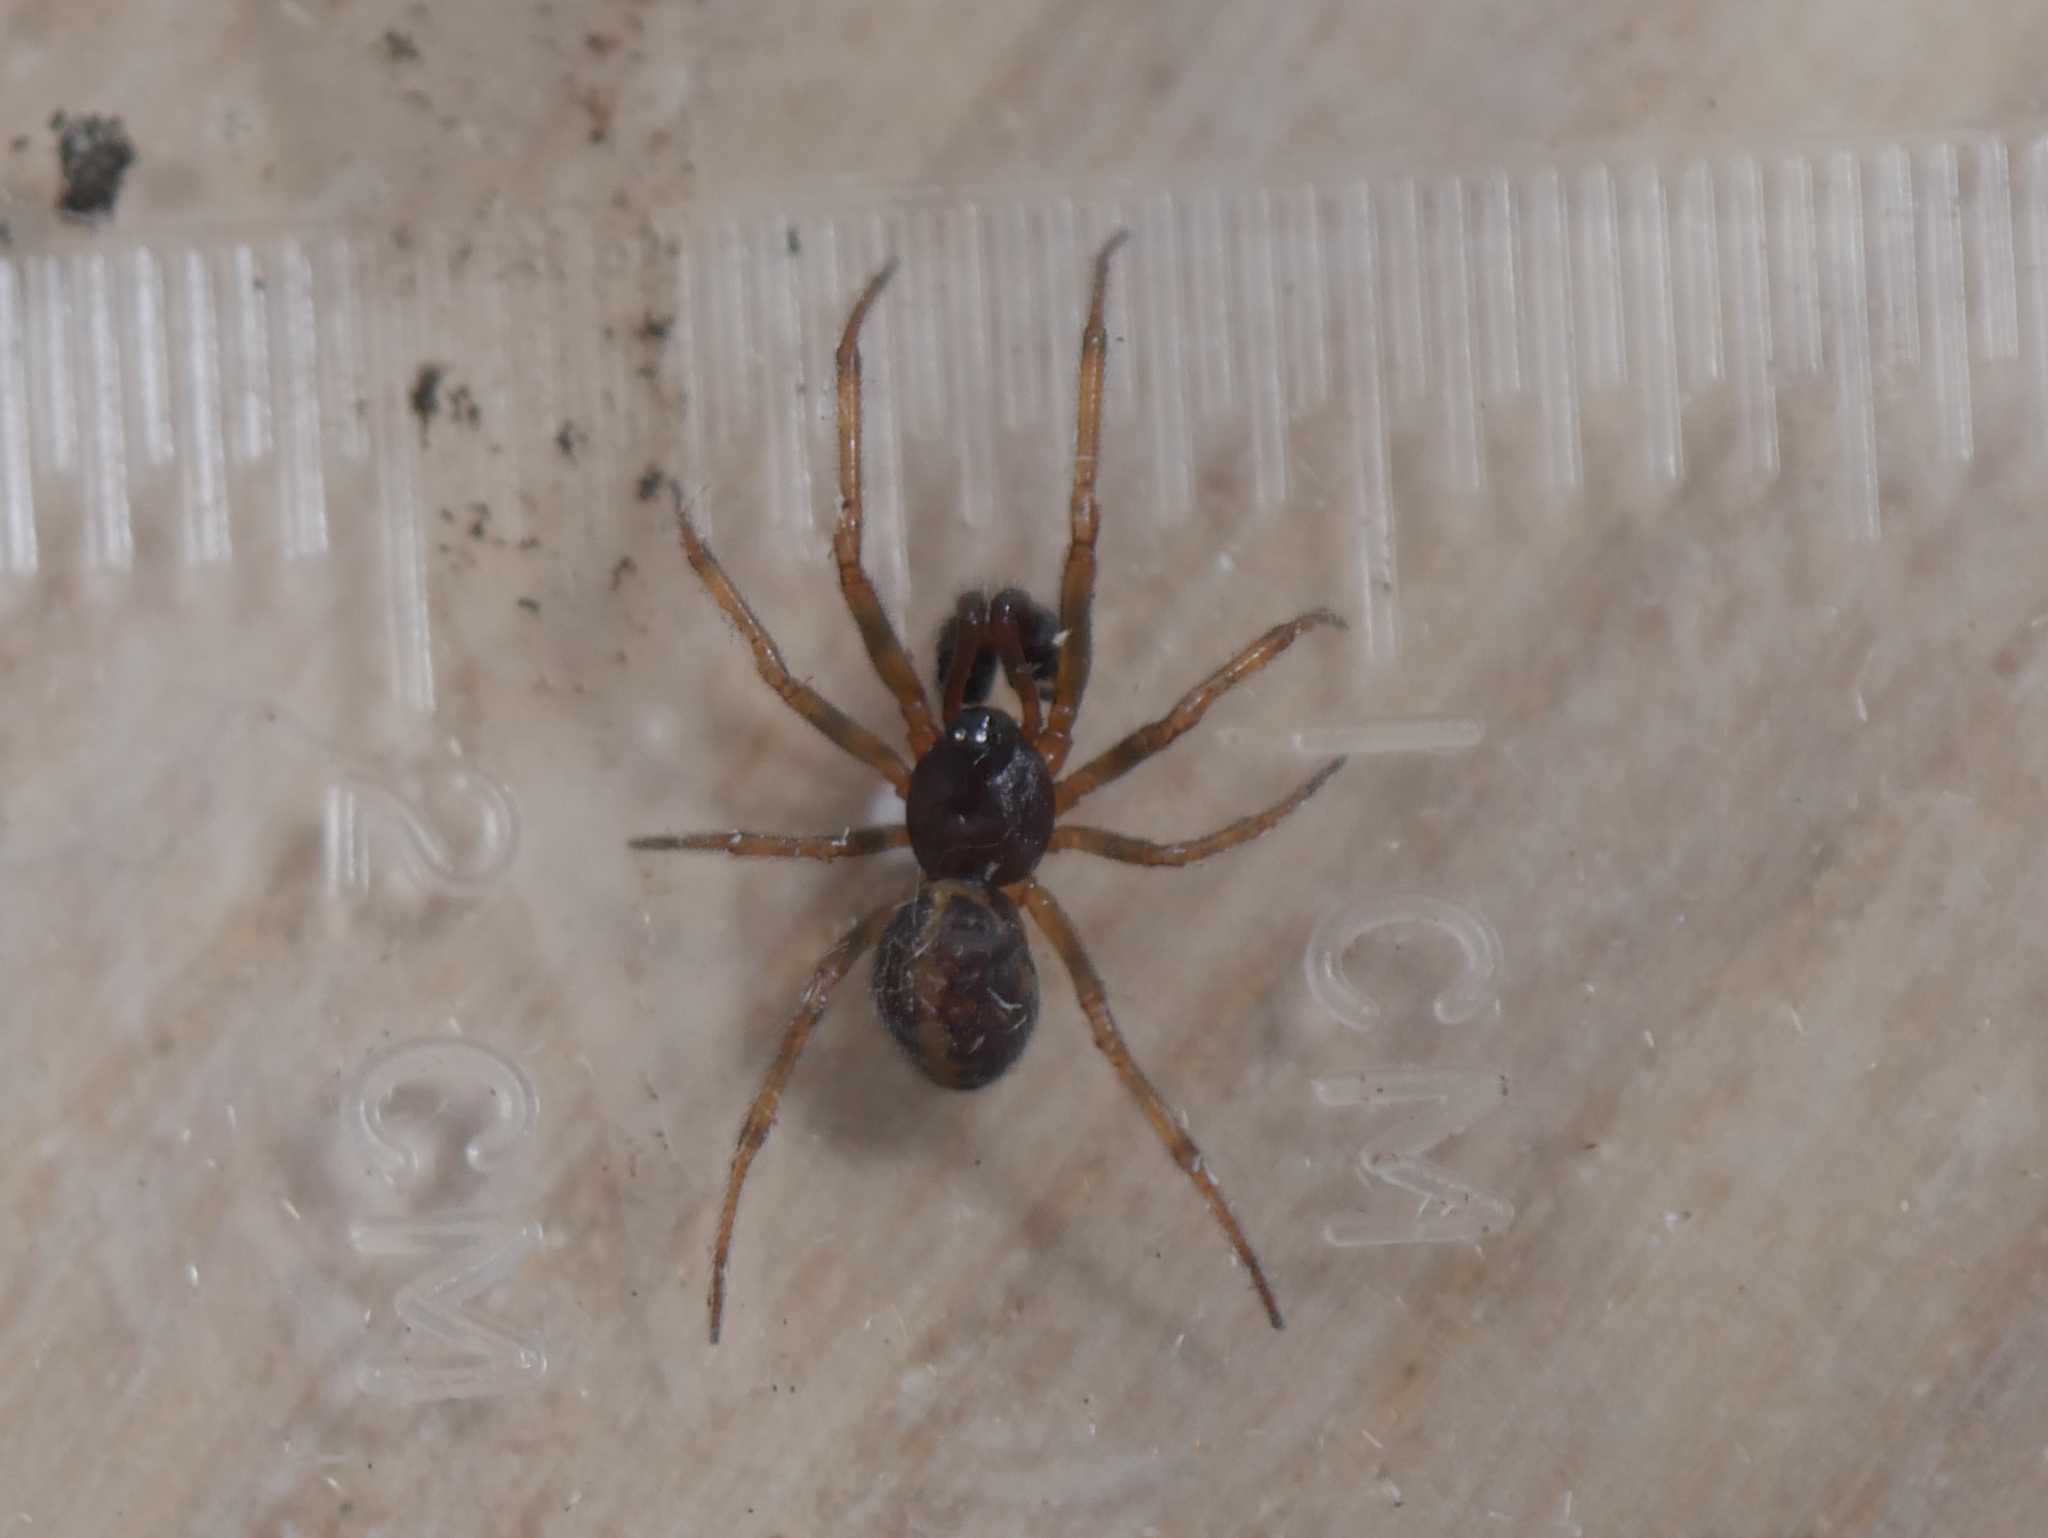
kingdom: Animalia
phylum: Arthropoda
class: Arachnida
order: Araneae
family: Theridiidae
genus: Steatoda
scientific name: Steatoda bipunctata
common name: False widow
